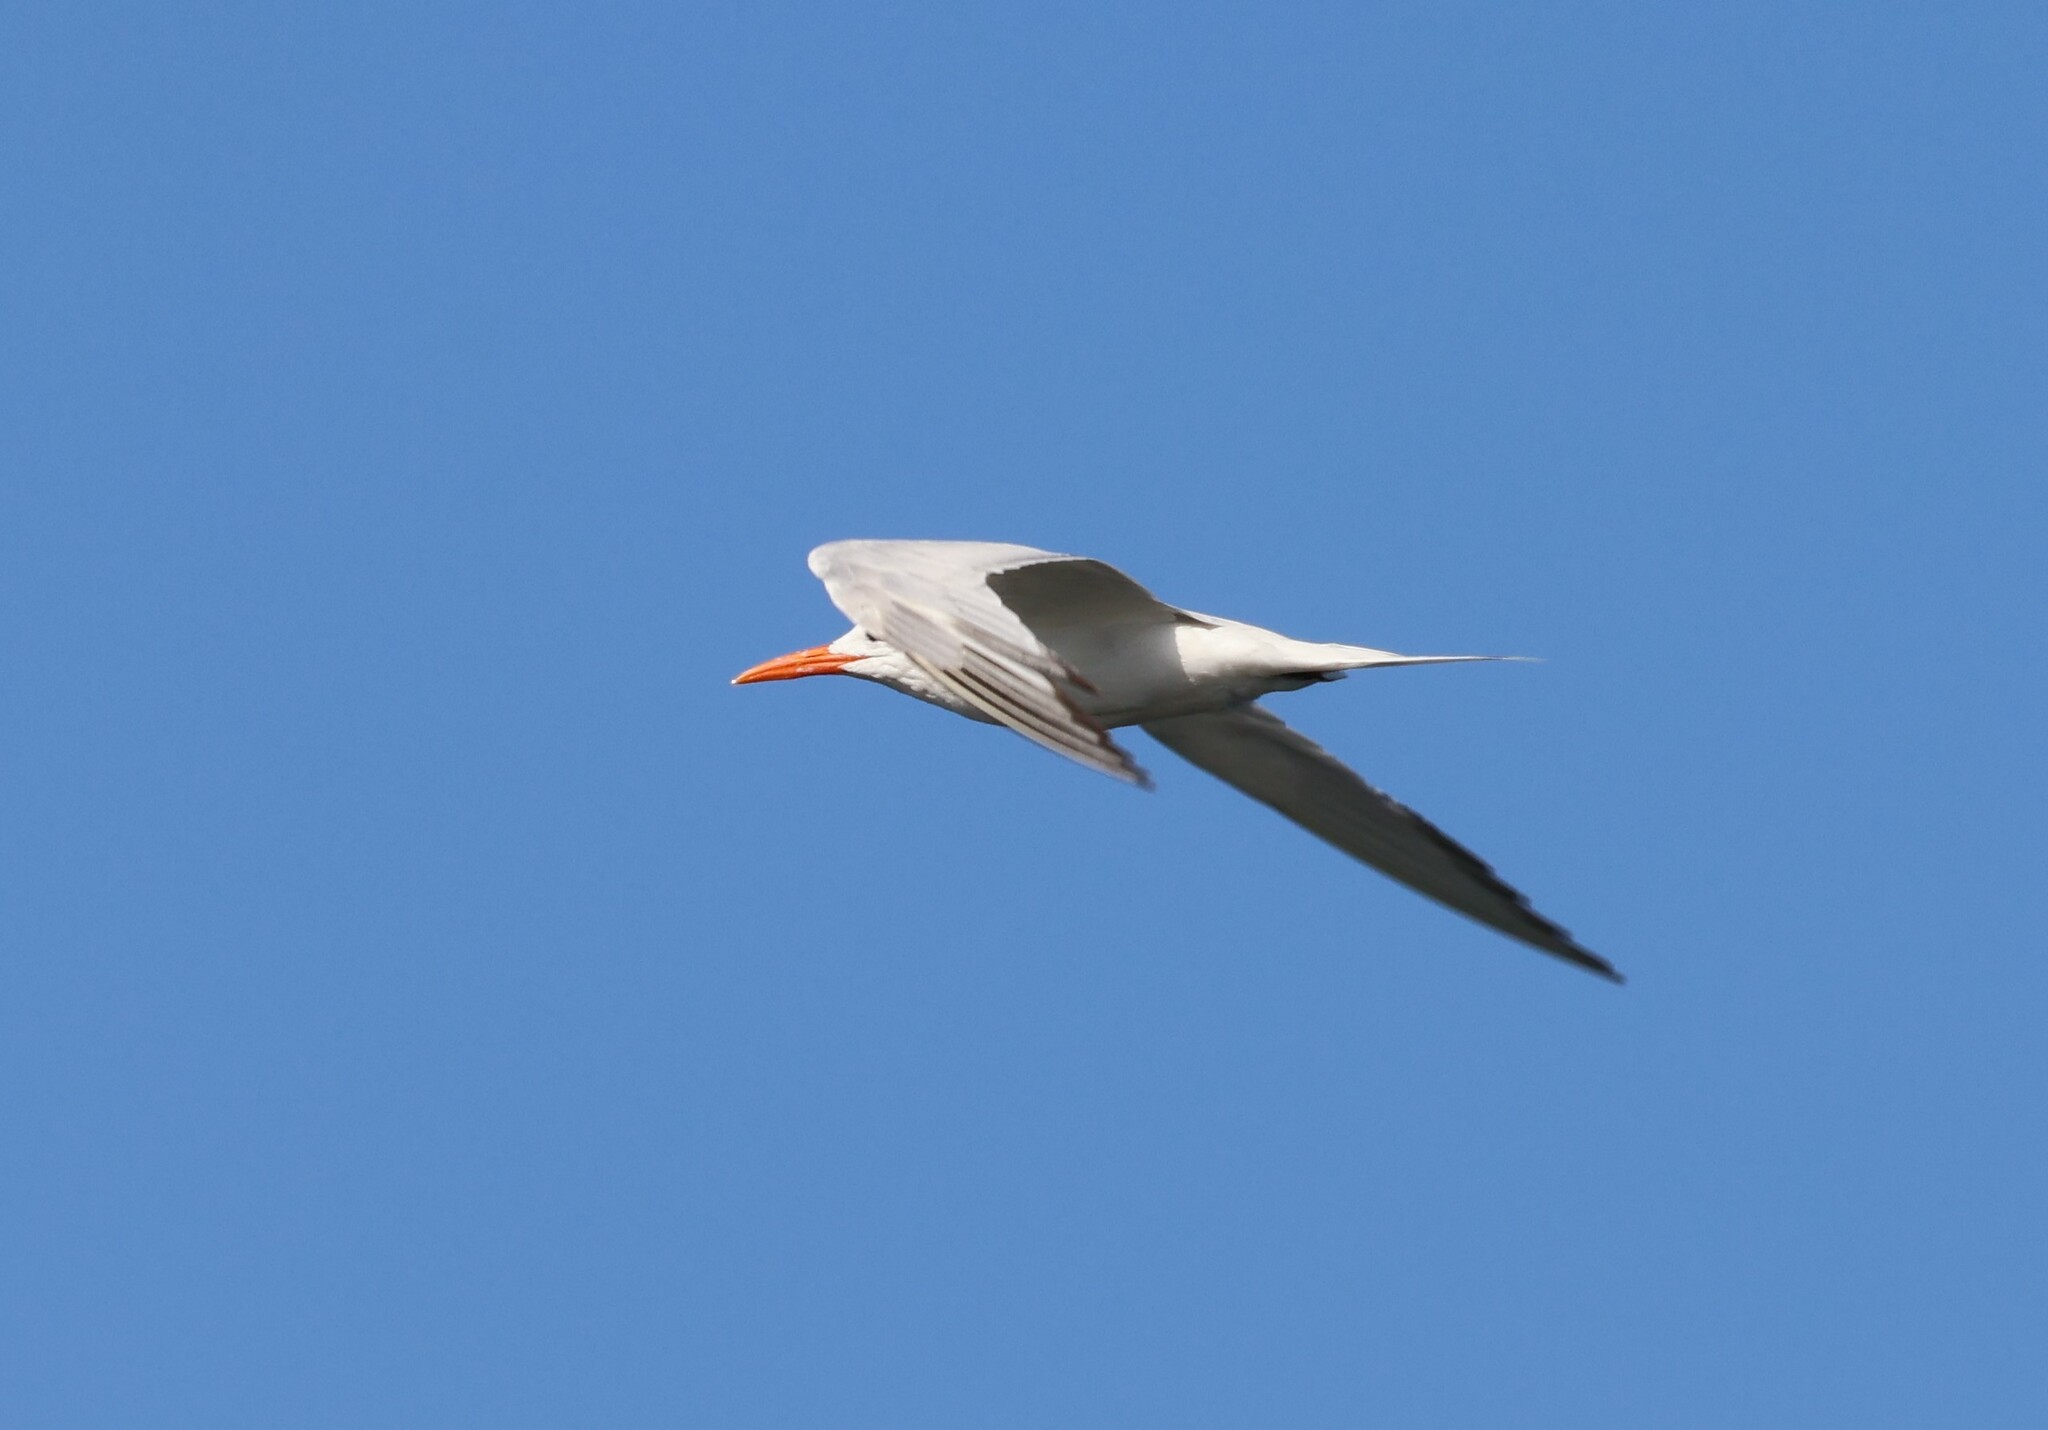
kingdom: Animalia
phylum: Chordata
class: Aves
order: Charadriiformes
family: Laridae
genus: Thalasseus
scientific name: Thalasseus maximus
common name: Royal tern
